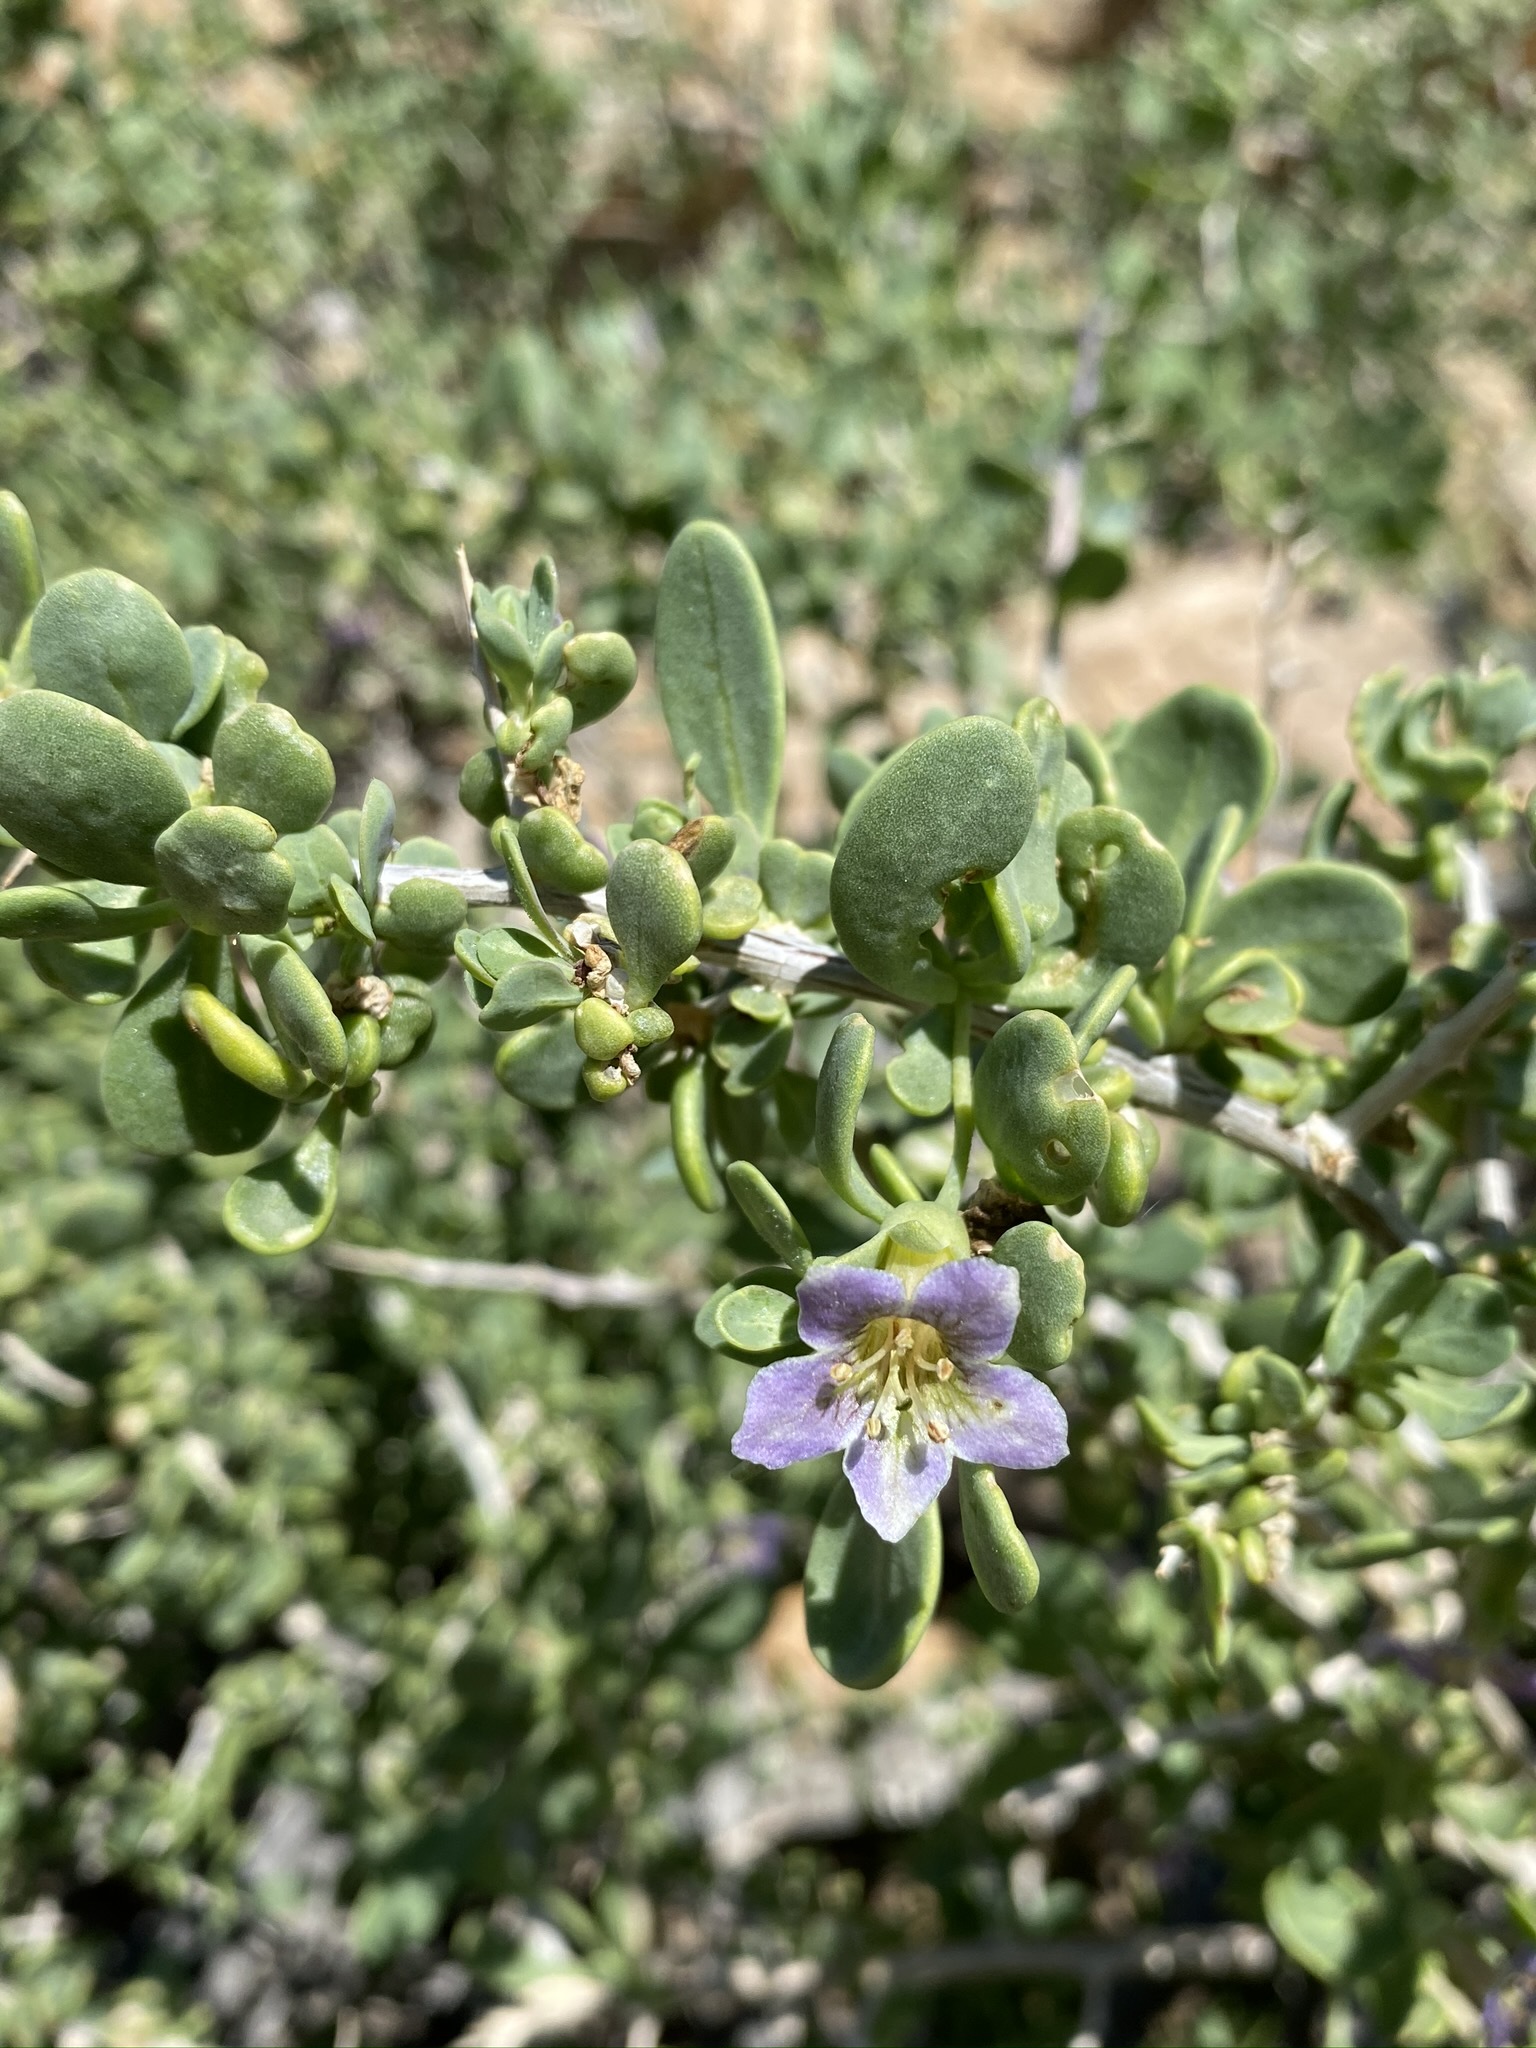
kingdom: Plantae
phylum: Tracheophyta
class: Magnoliopsida
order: Solanales
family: Solanaceae
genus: Lycium
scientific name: Lycium pallidum
